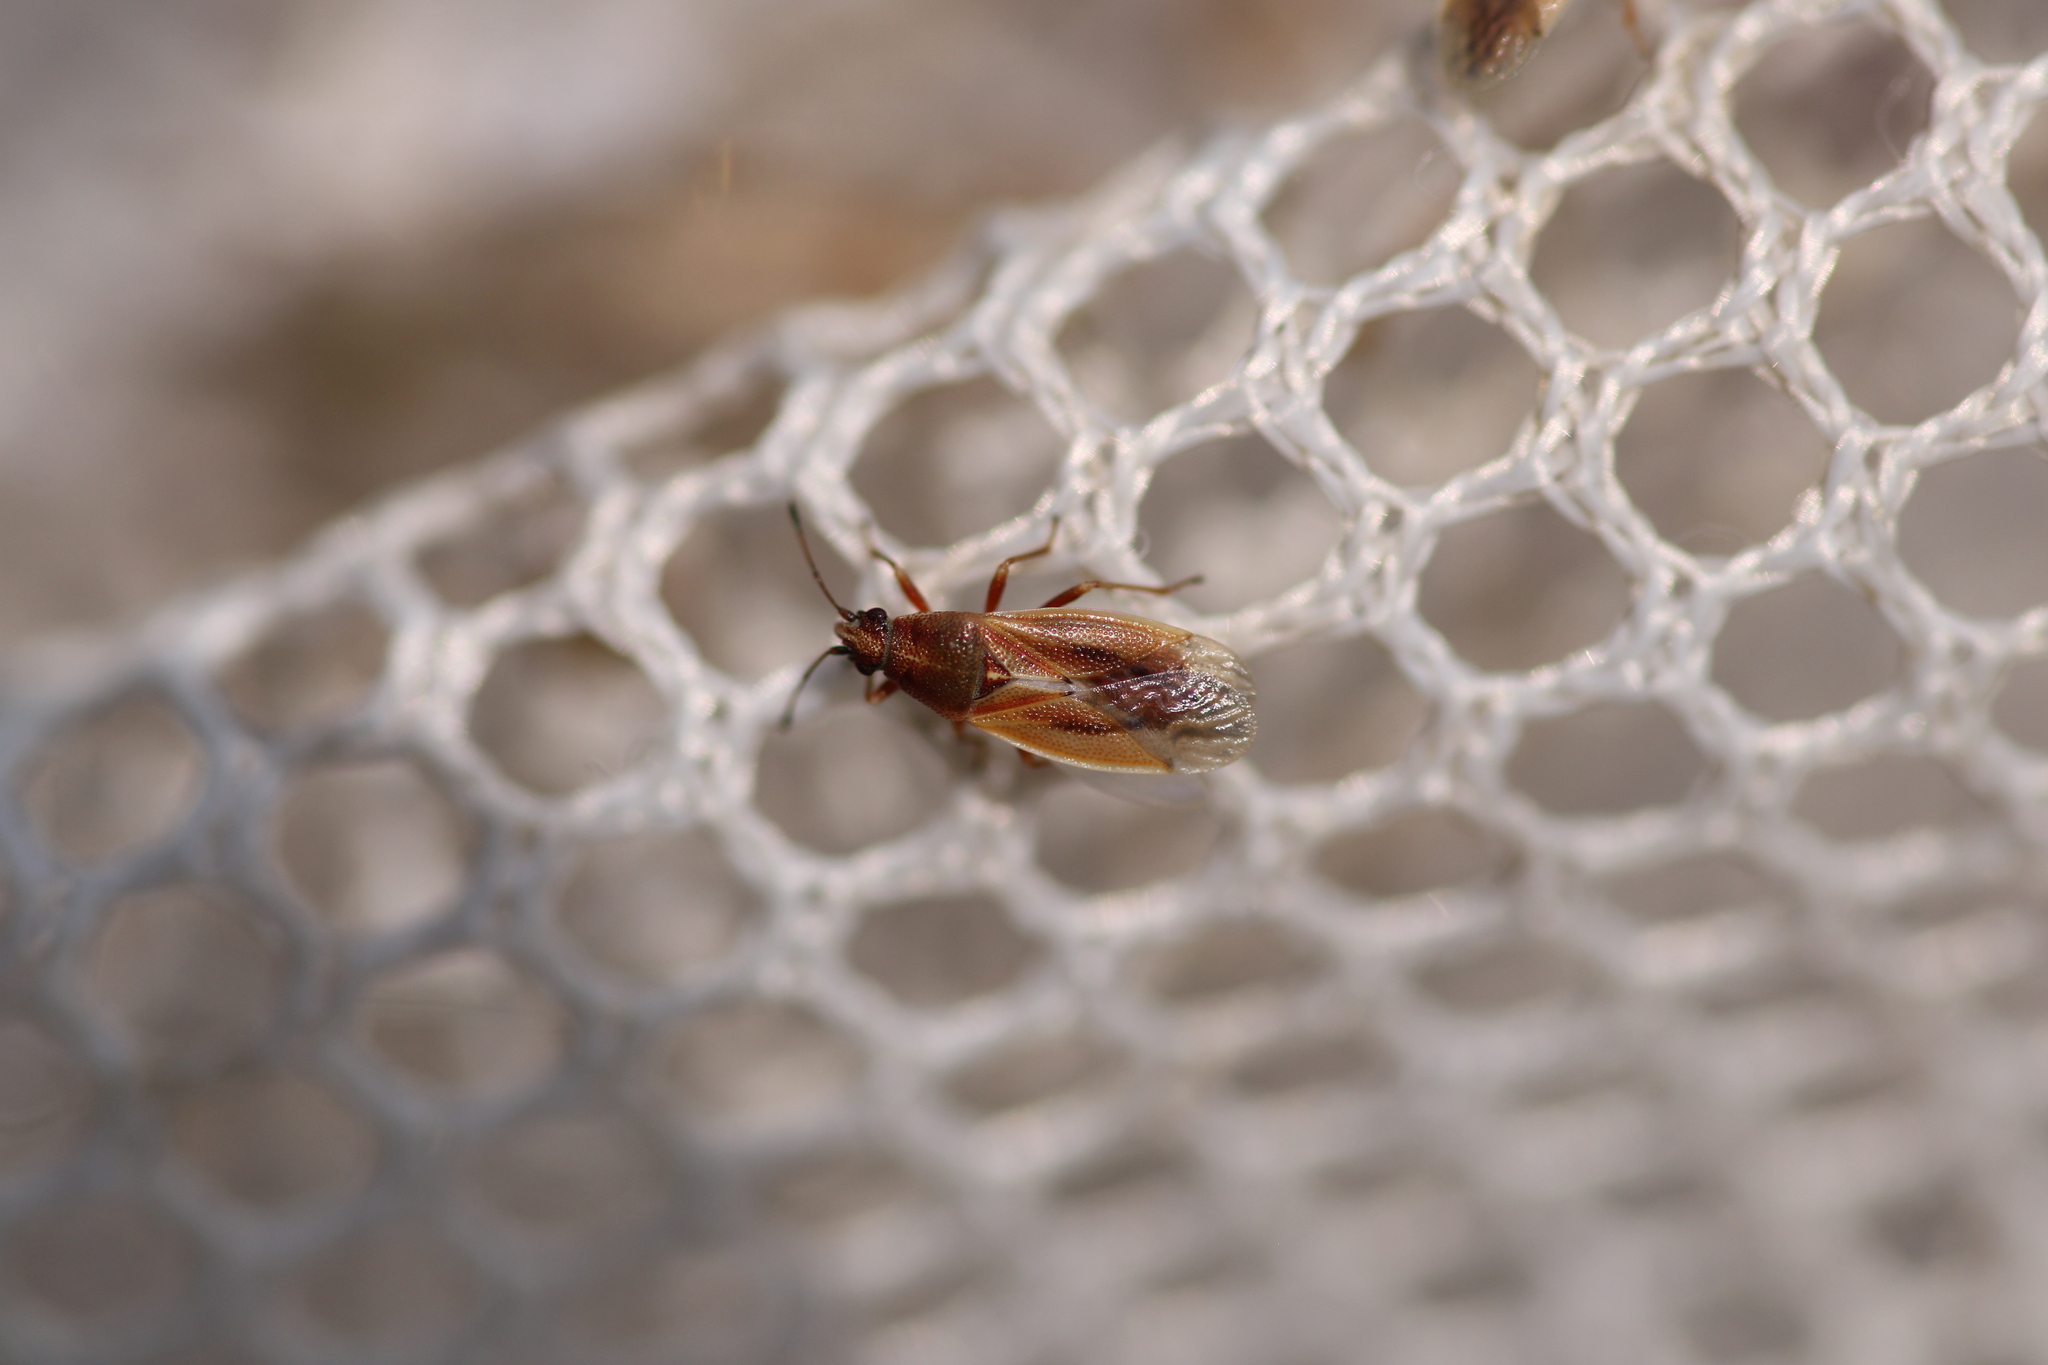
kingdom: Animalia
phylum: Arthropoda
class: Insecta
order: Hemiptera
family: Cymidae
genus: Cymus
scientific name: Cymus glandicolor
